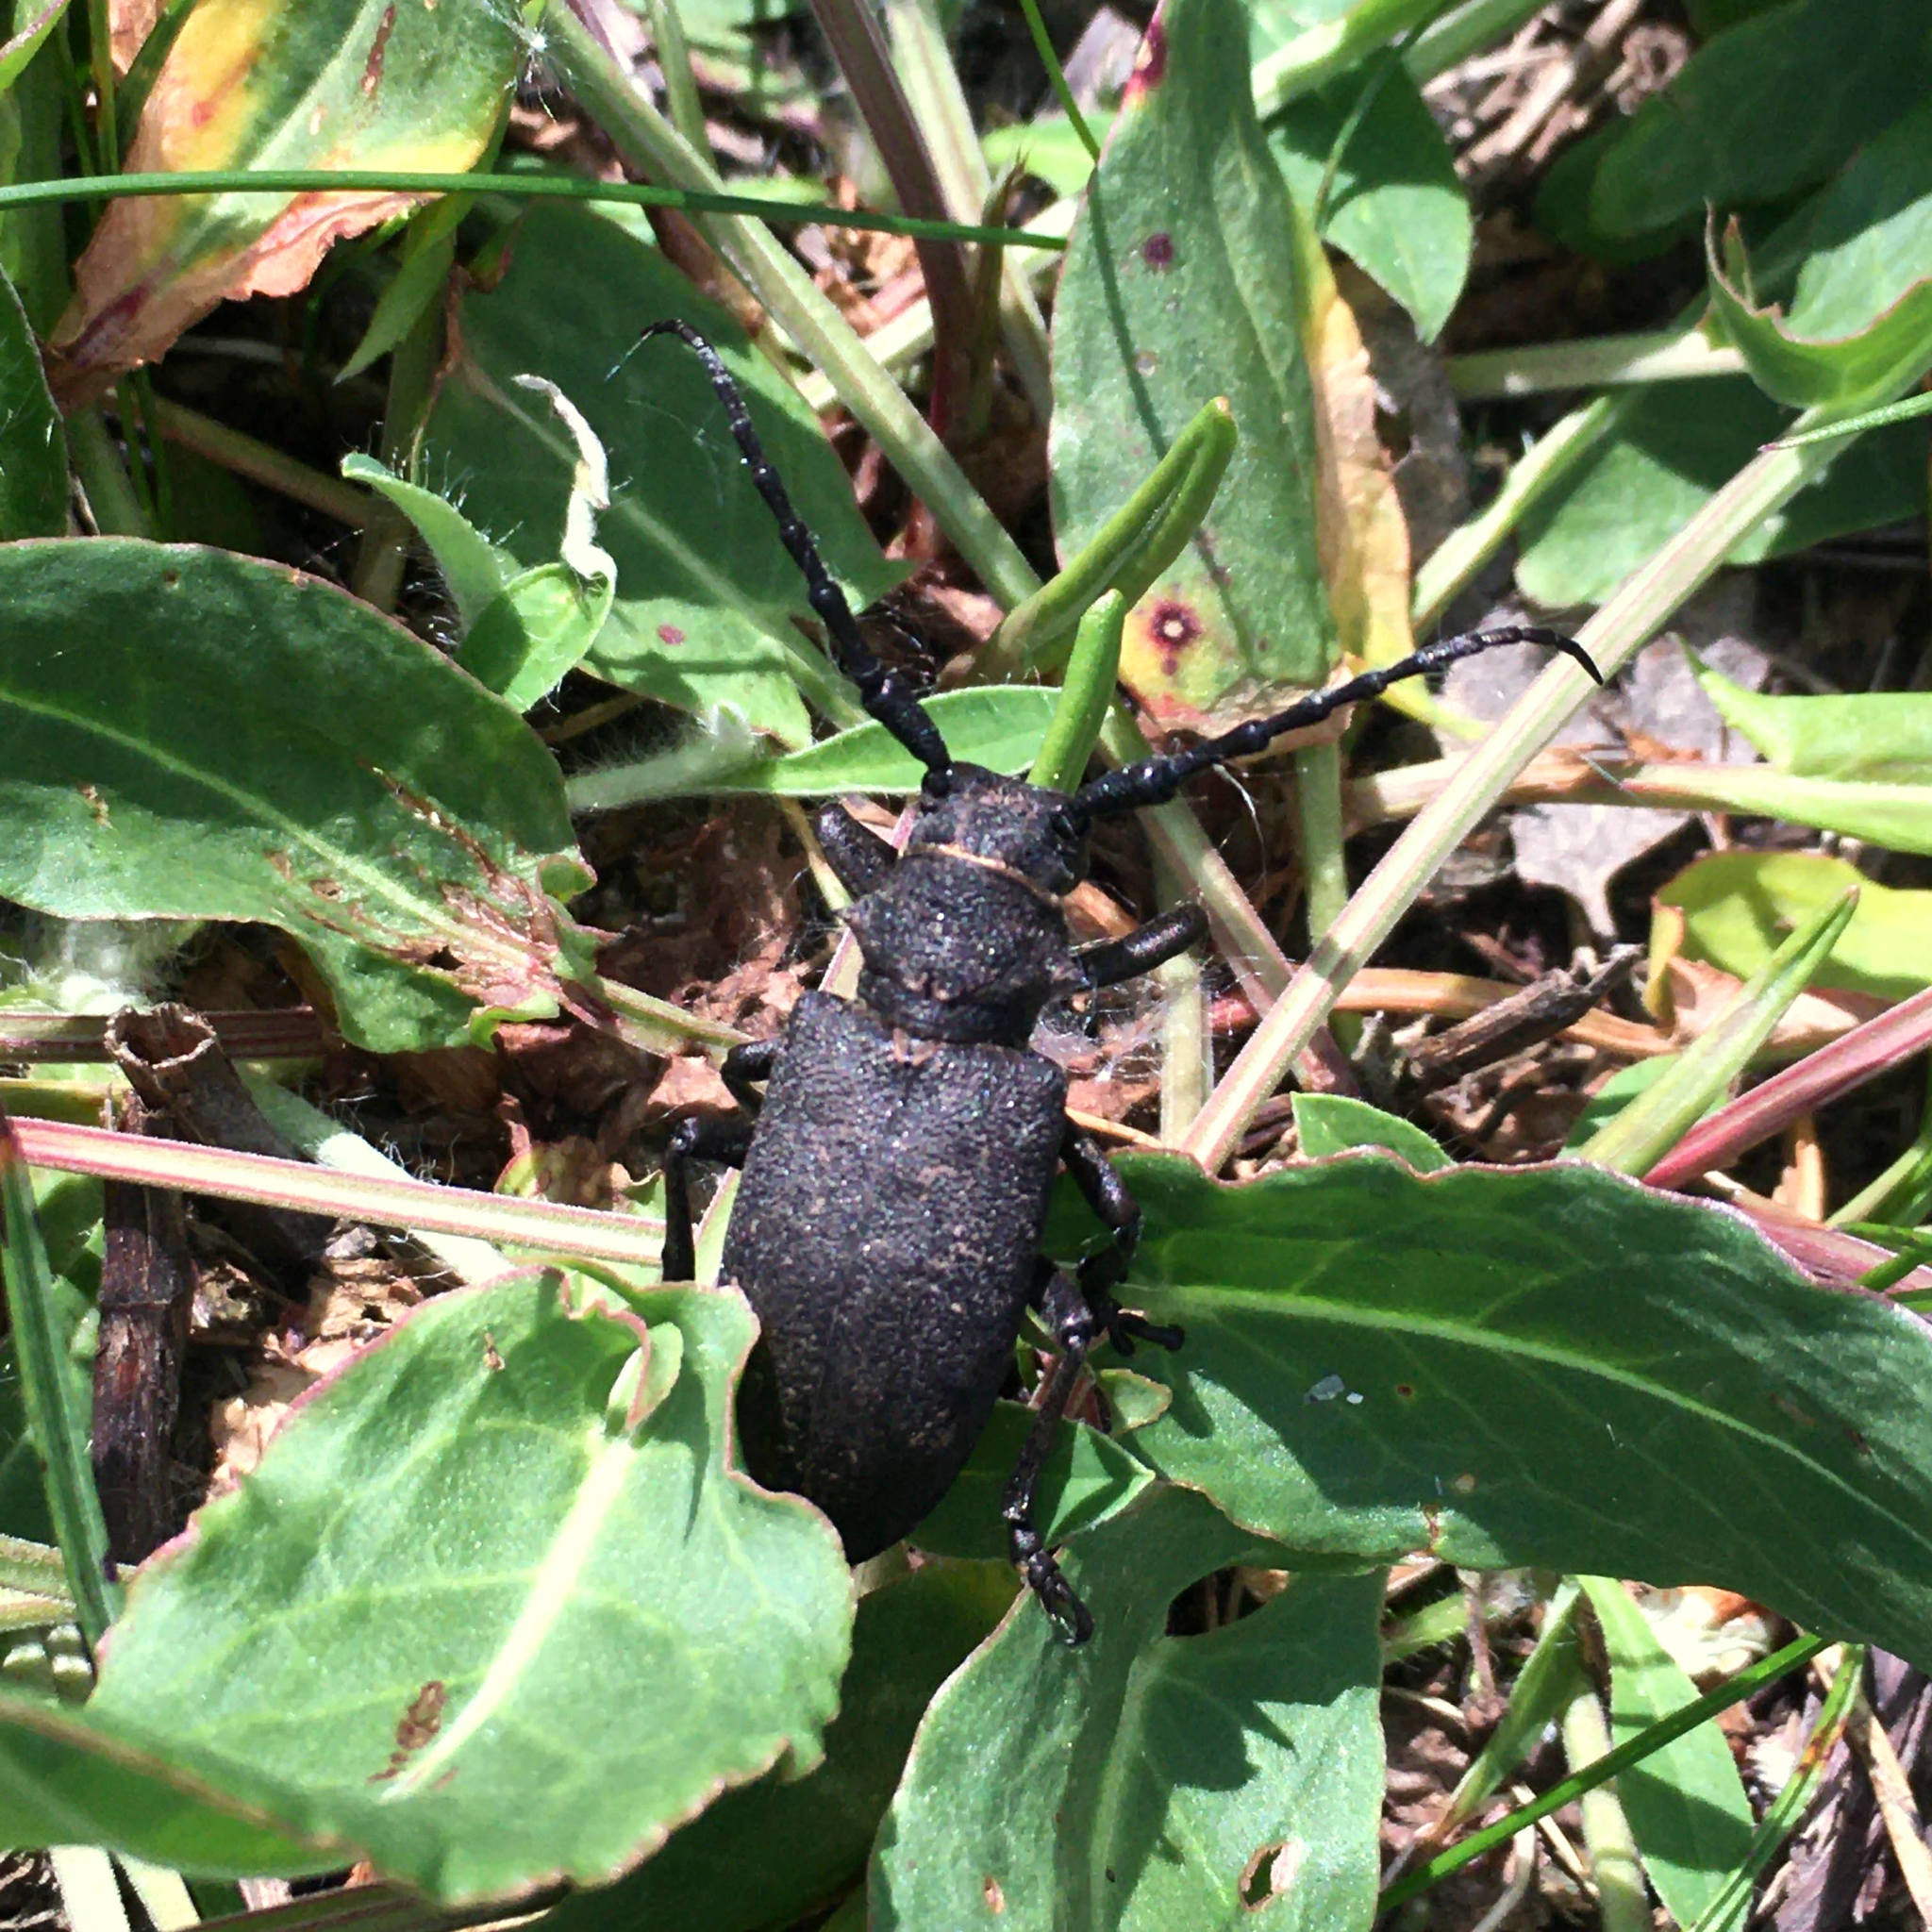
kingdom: Animalia
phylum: Arthropoda
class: Insecta
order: Coleoptera
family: Cerambycidae
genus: Lamia
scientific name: Lamia textor
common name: Weaver beetle
